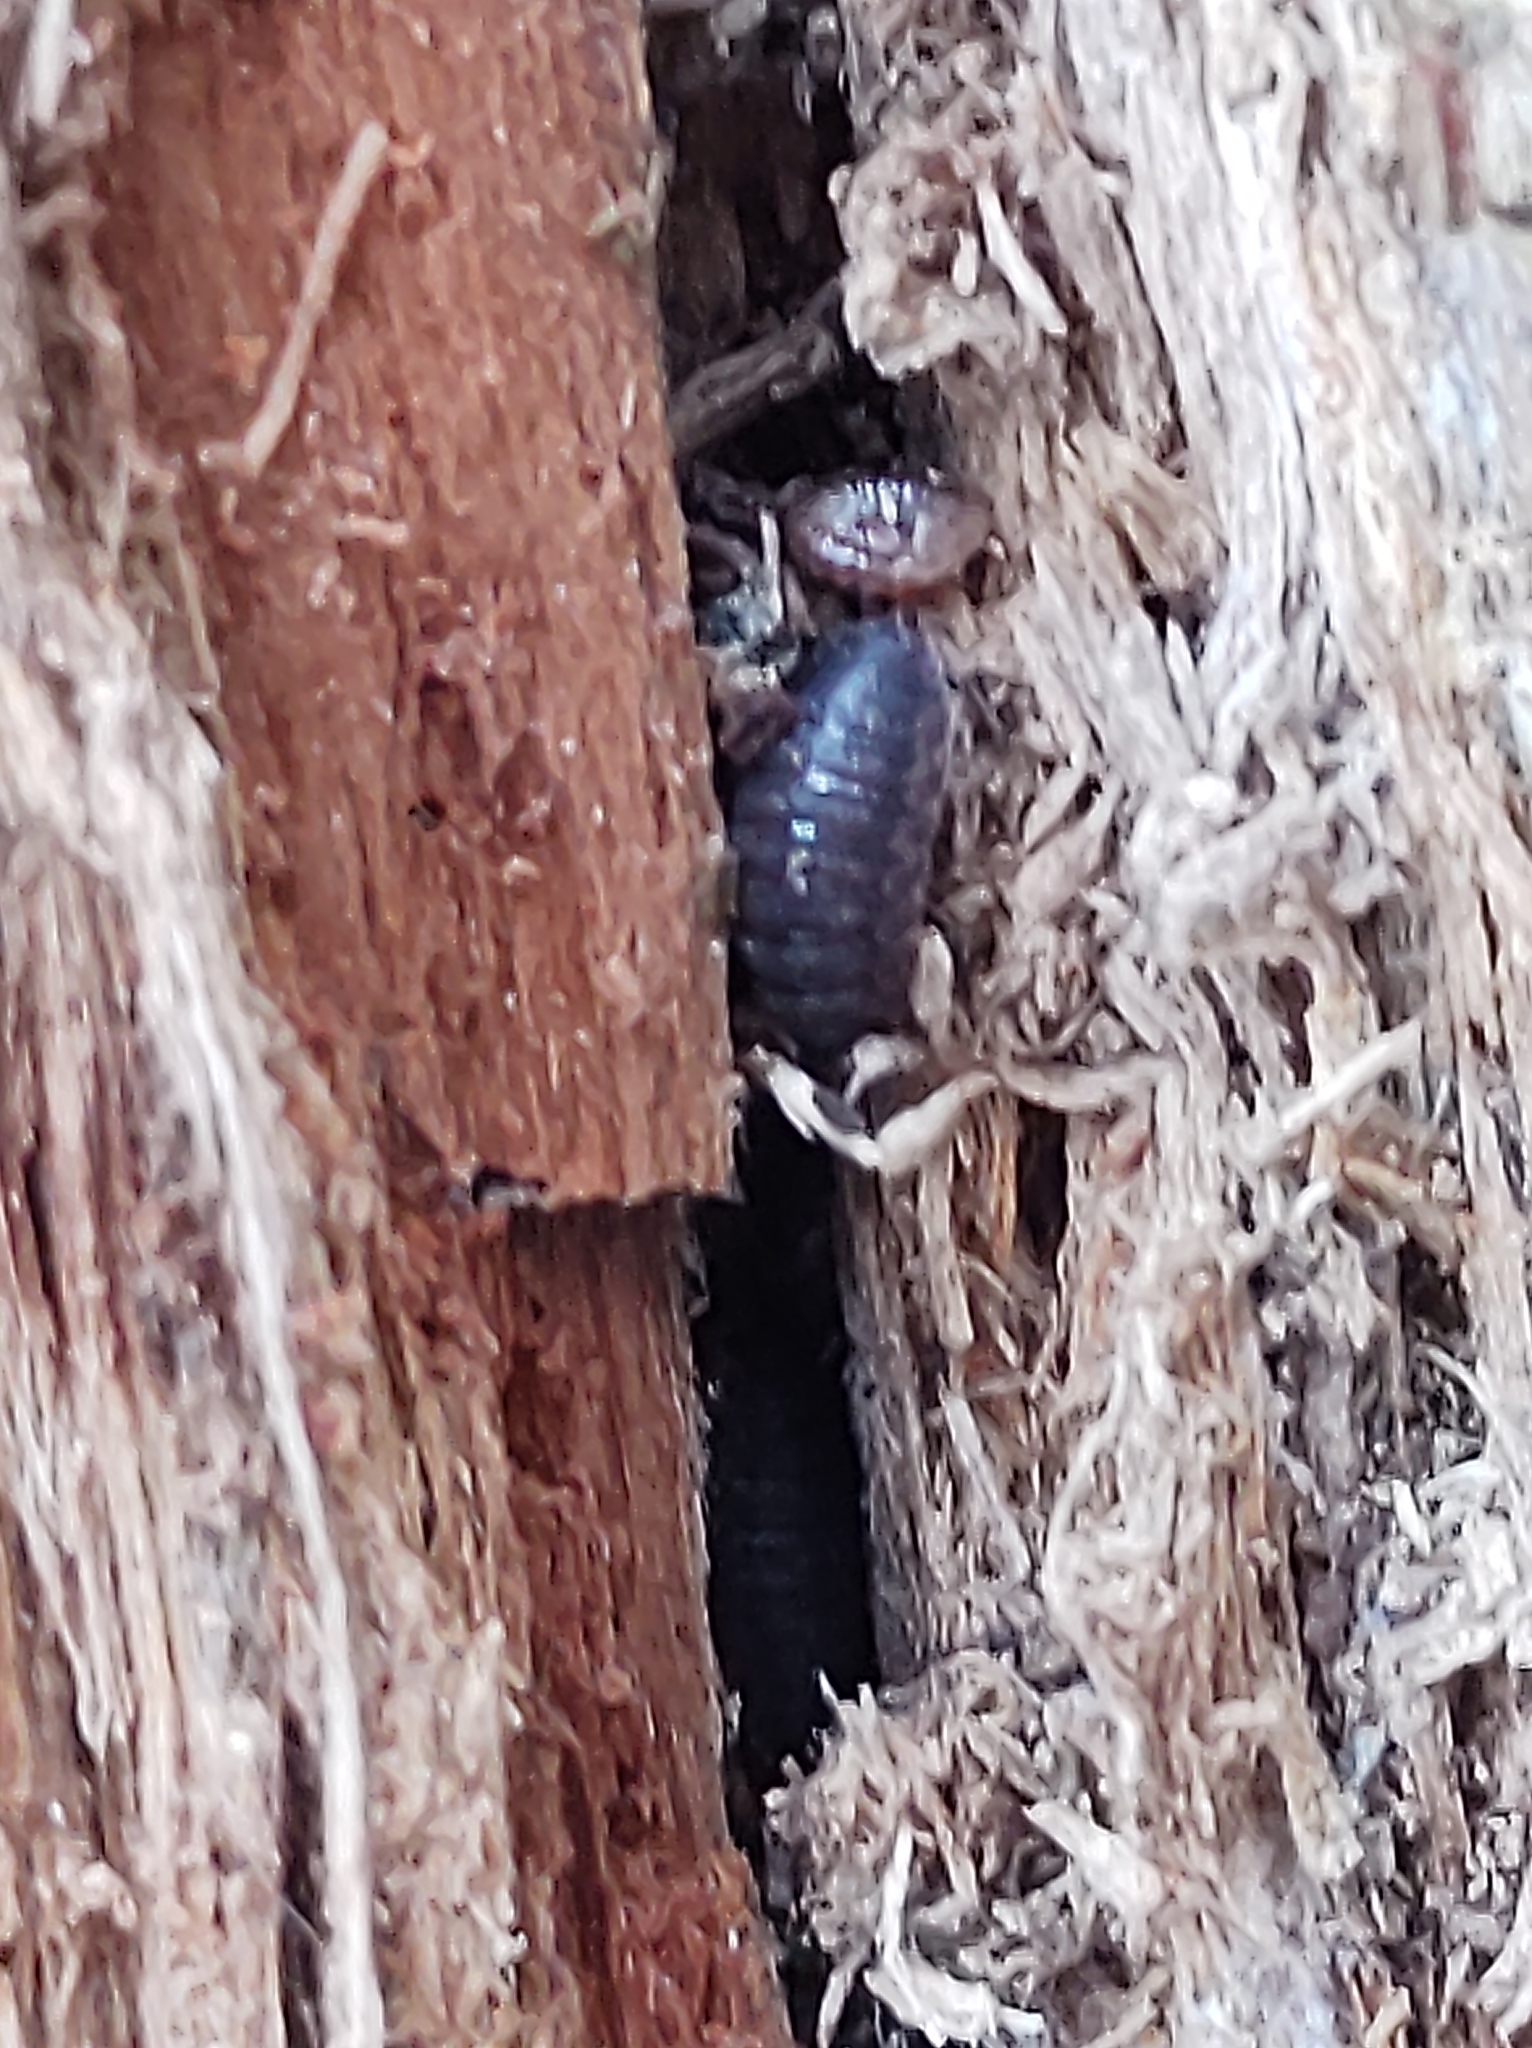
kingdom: Animalia
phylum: Arthropoda
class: Malacostraca
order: Isopoda
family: Porcellionidae
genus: Porcellio
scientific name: Porcellio scaber
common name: Common rough woodlouse
